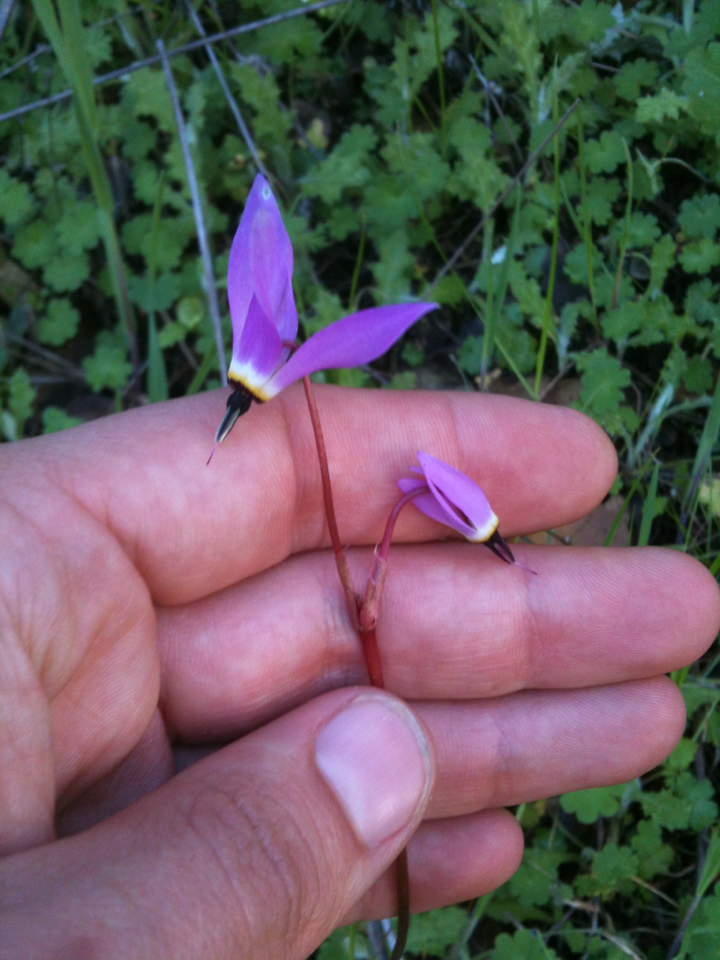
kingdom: Plantae
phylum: Tracheophyta
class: Magnoliopsida
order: Ericales
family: Primulaceae
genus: Dodecatheon
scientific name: Dodecatheon hendersonii
